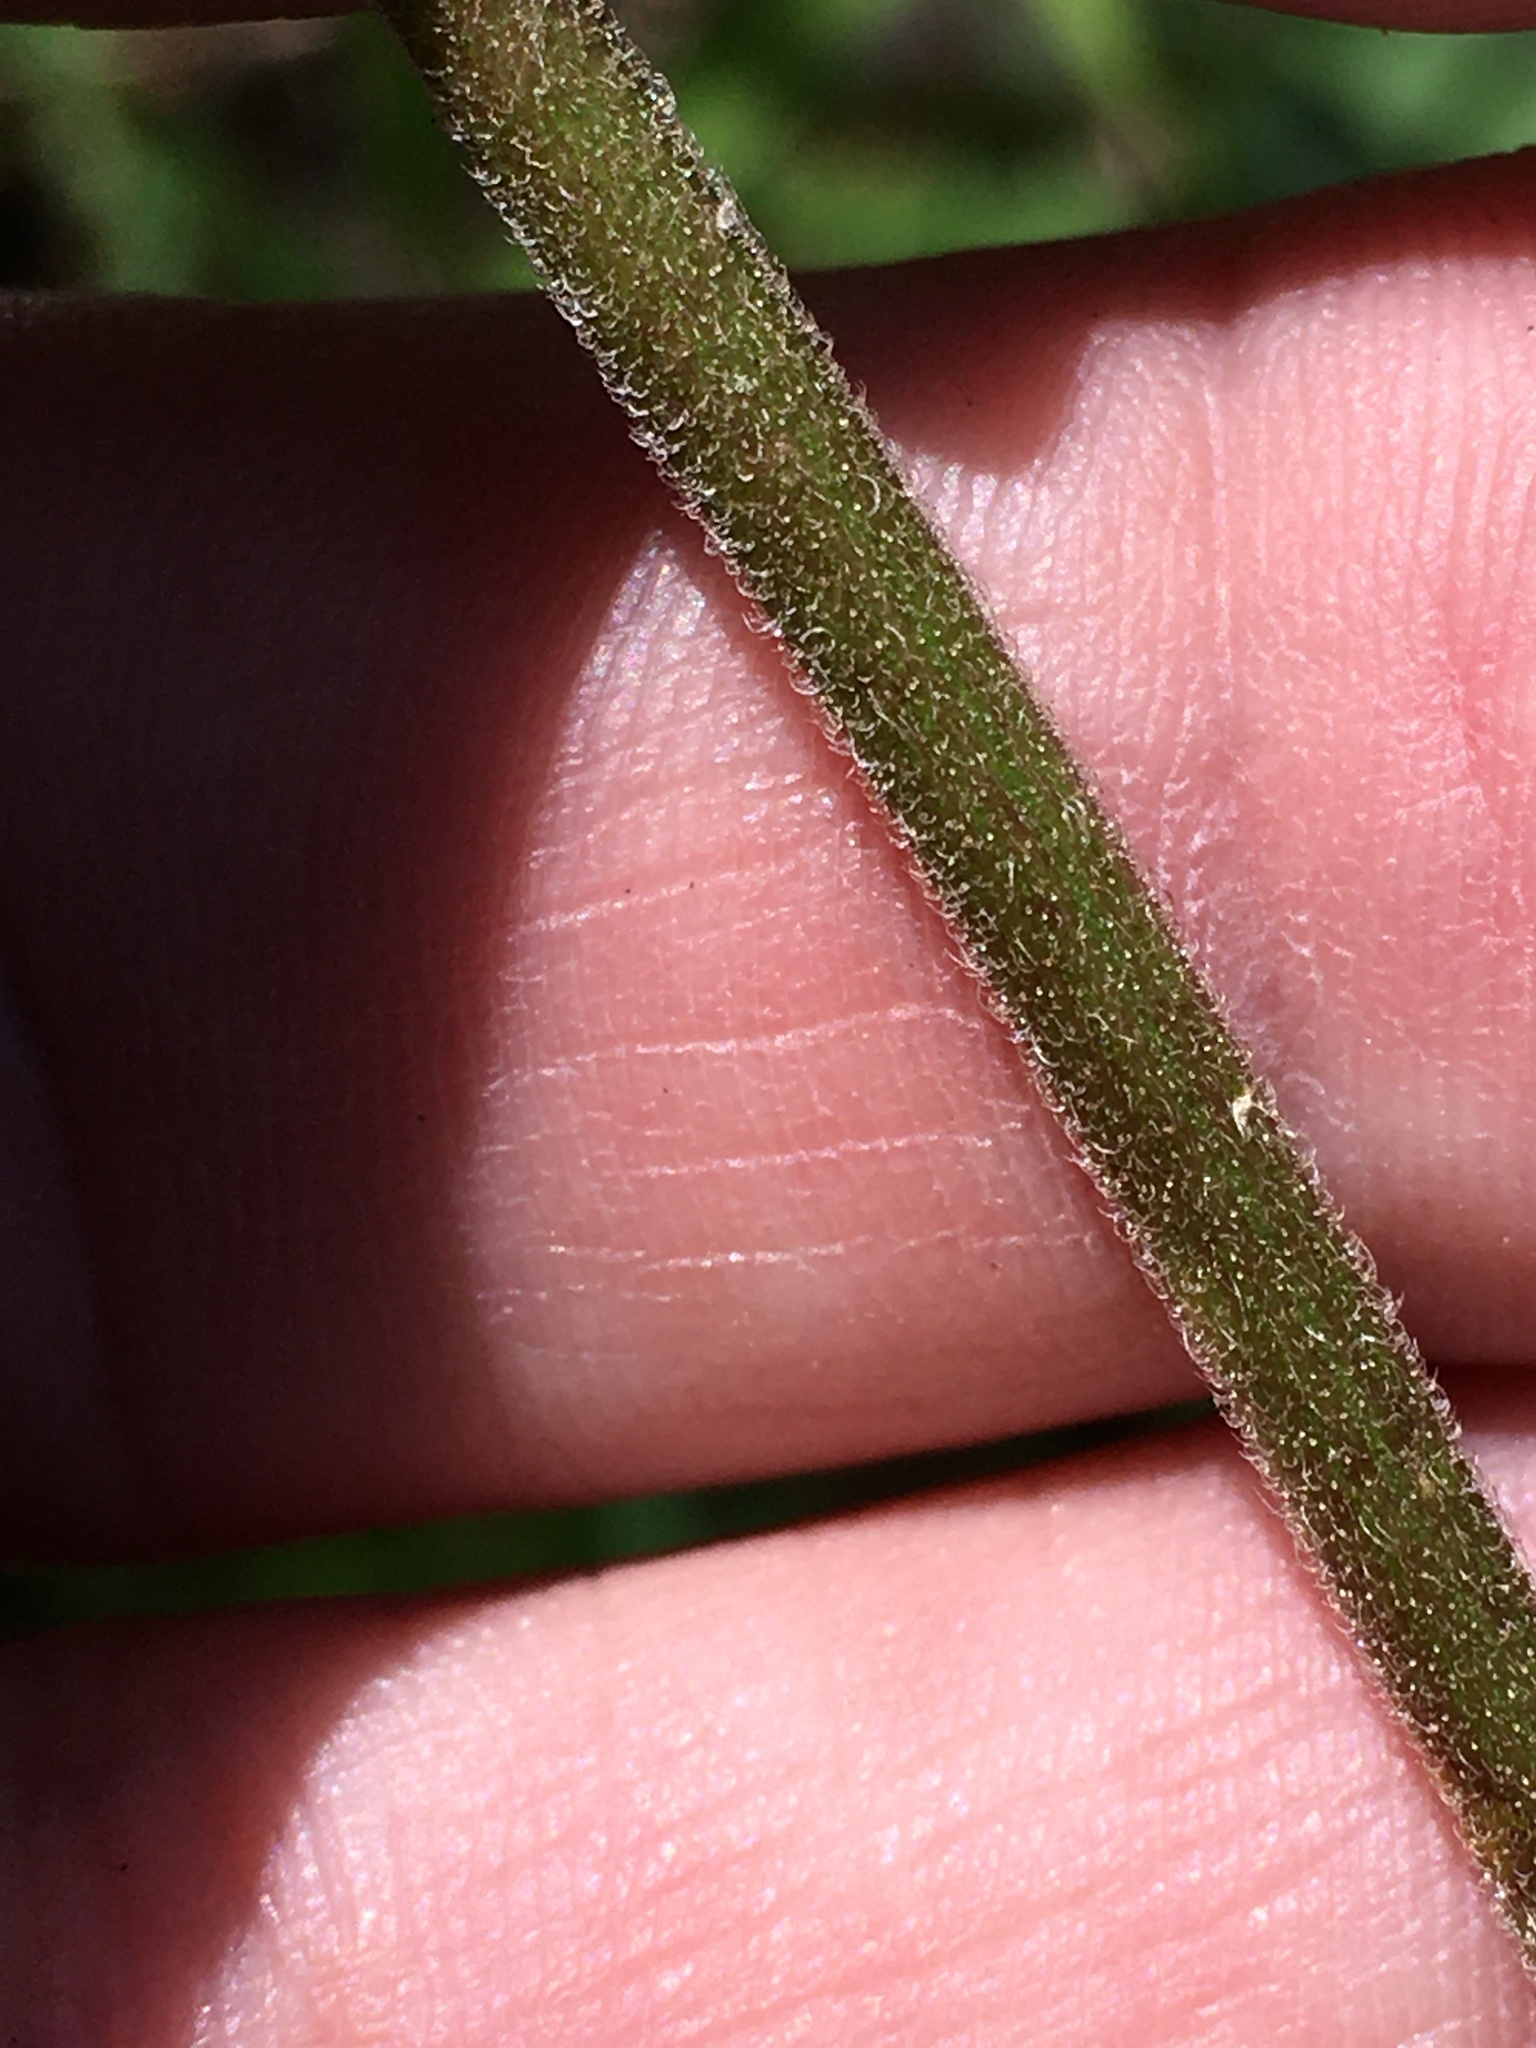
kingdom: Plantae
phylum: Tracheophyta
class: Magnoliopsida
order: Asterales
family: Asteraceae
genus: Eupatorium
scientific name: Eupatorium pilosum
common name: Rough boneset
